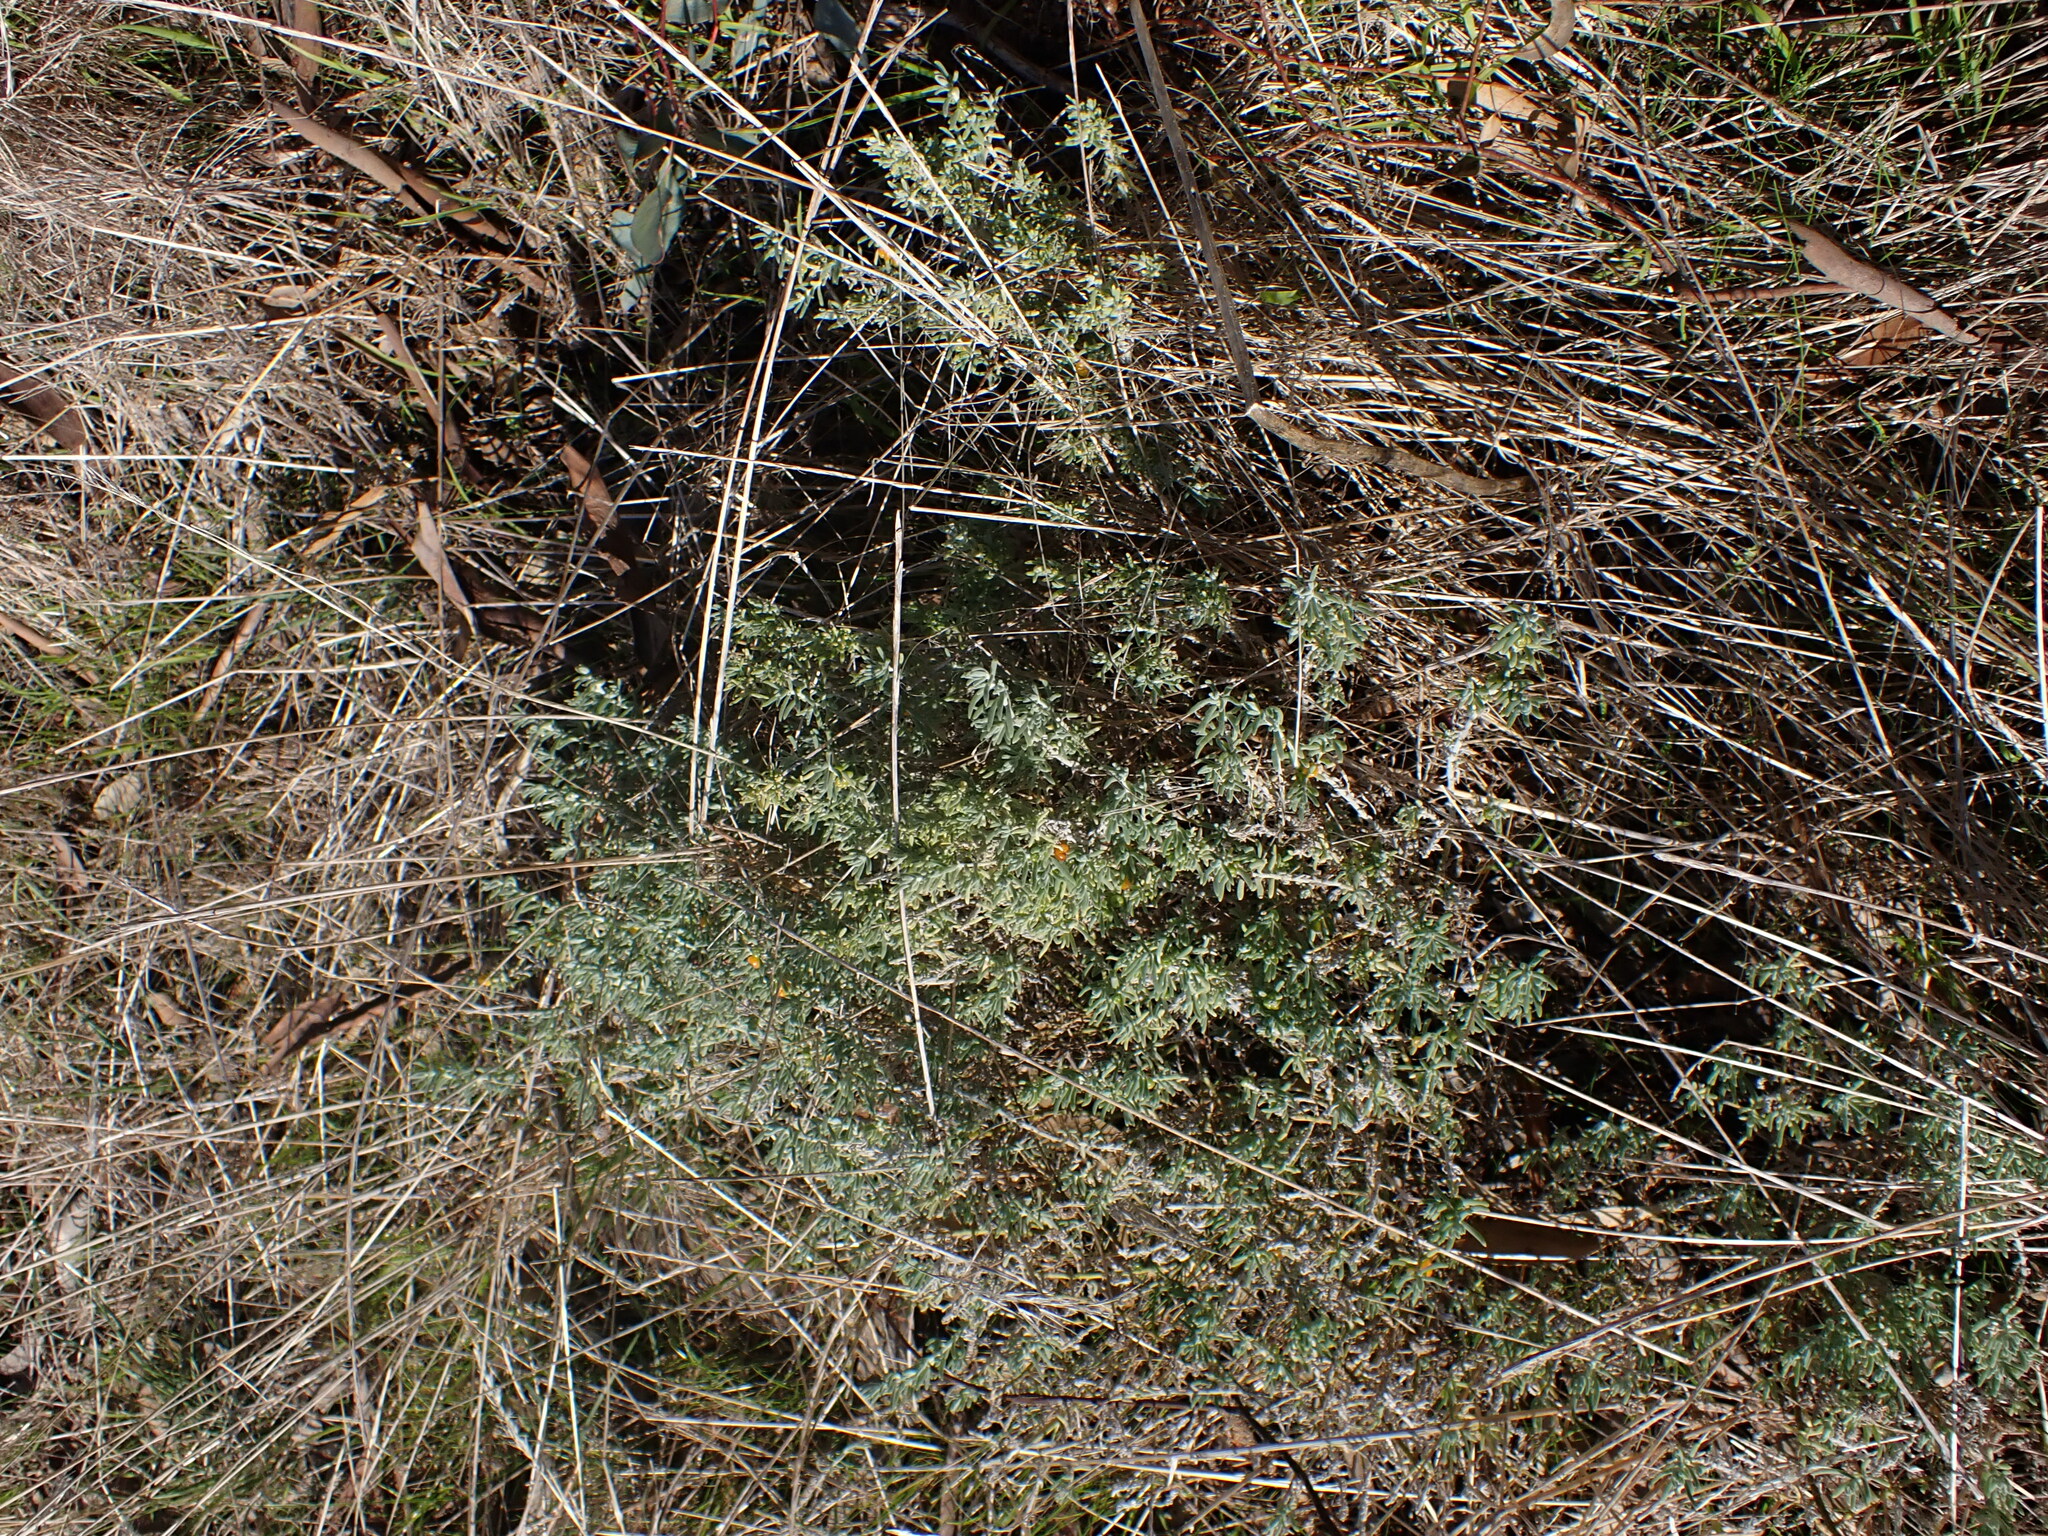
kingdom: Plantae
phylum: Tracheophyta
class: Magnoliopsida
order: Caryophyllales
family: Amaranthaceae
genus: Enchylaena
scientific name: Enchylaena tomentosa
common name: Ruby saltbush
